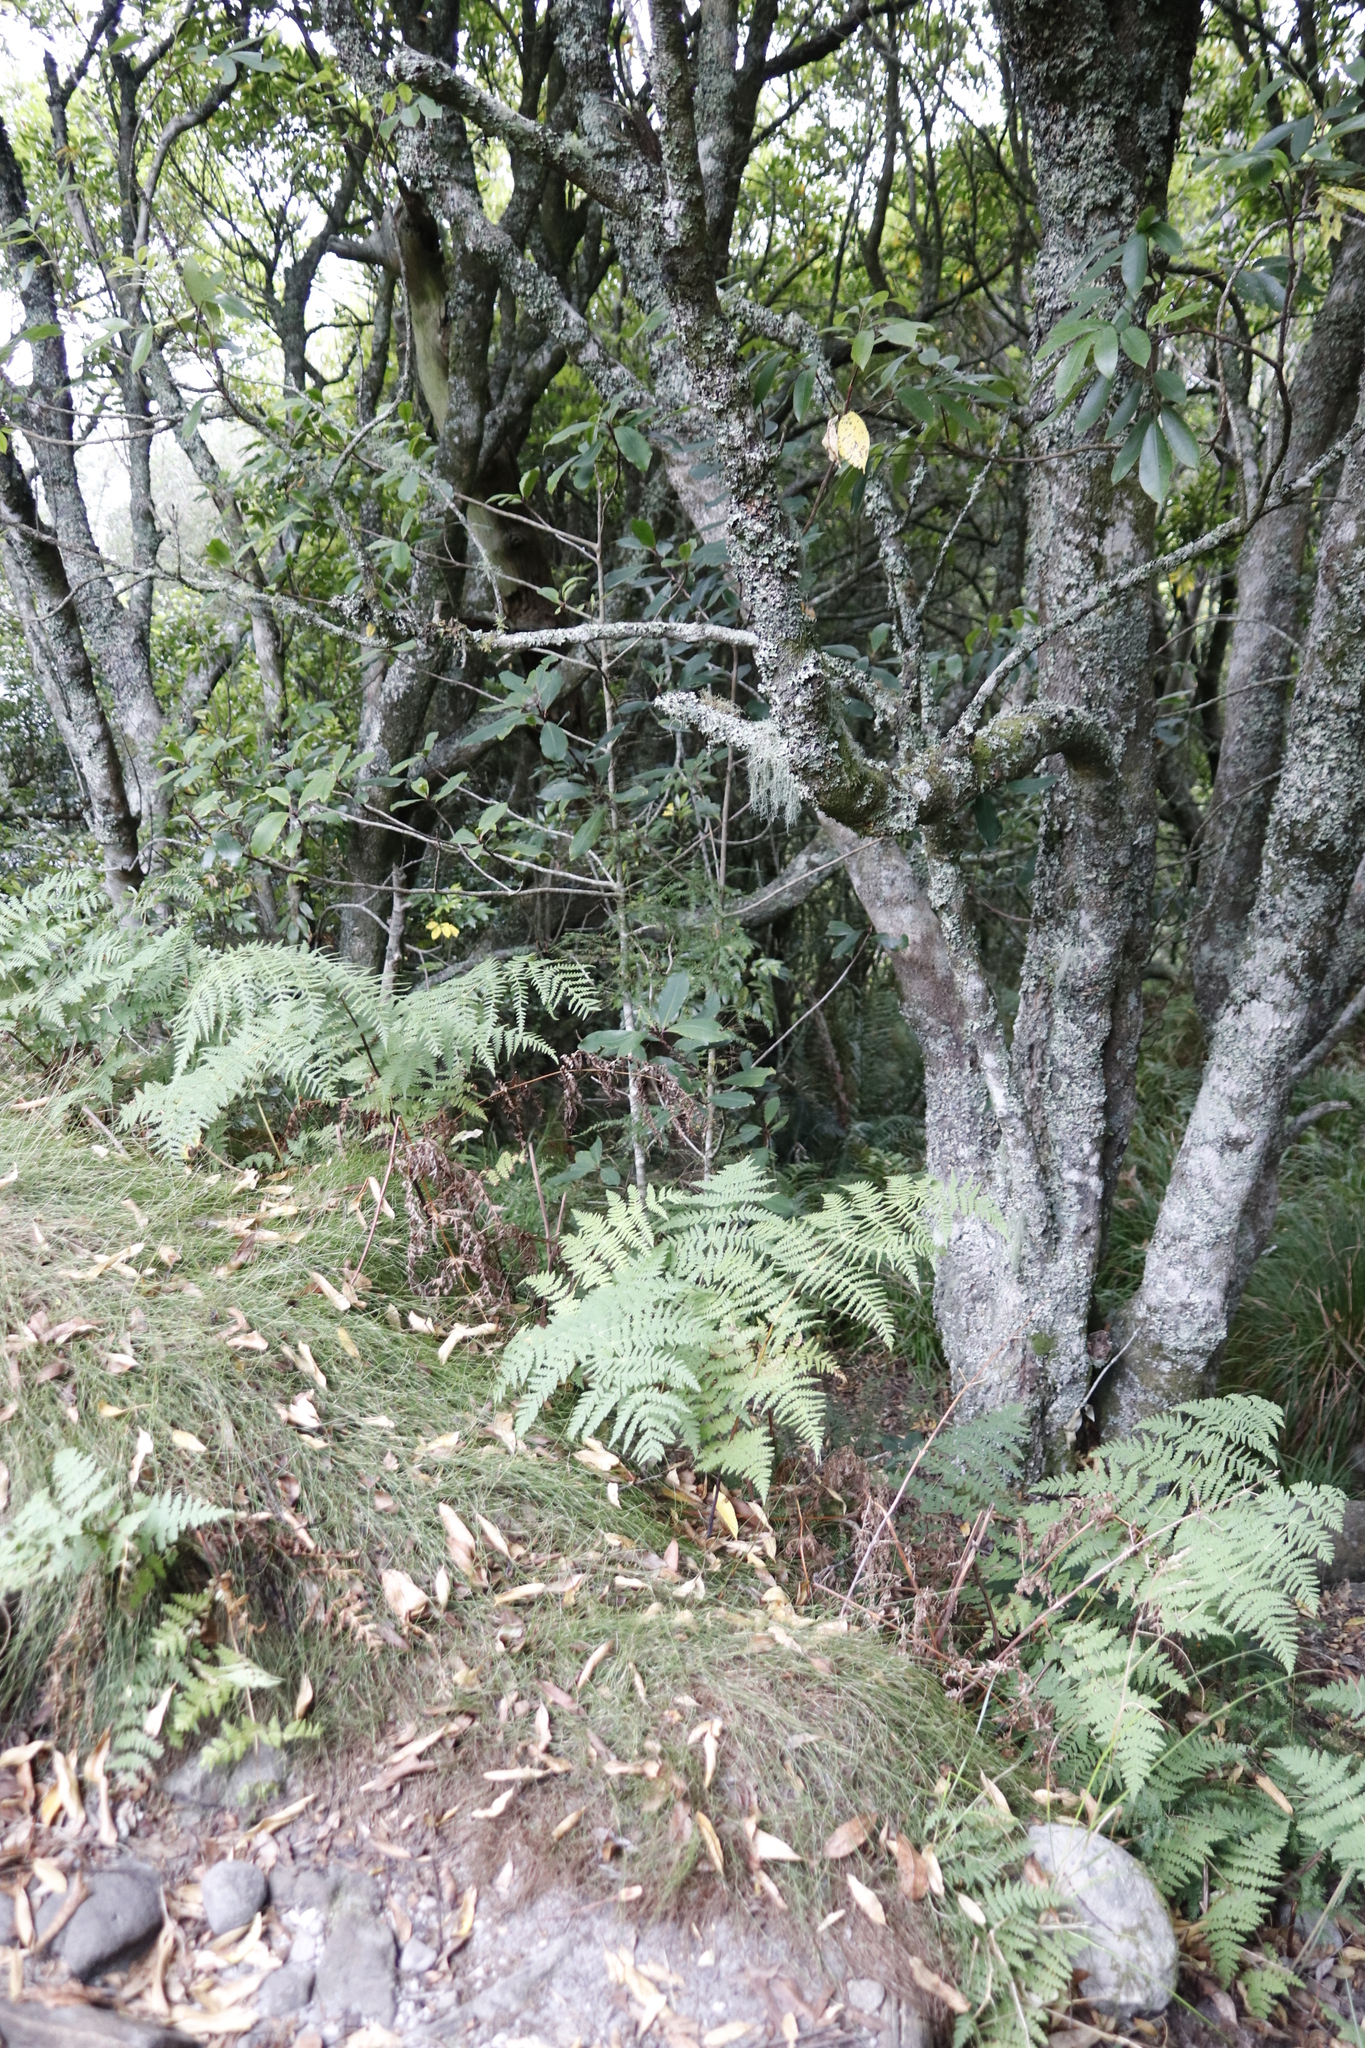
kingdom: Plantae
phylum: Tracheophyta
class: Magnoliopsida
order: Ericales
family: Primulaceae
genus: Myrsine
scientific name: Myrsine melanophloeos
